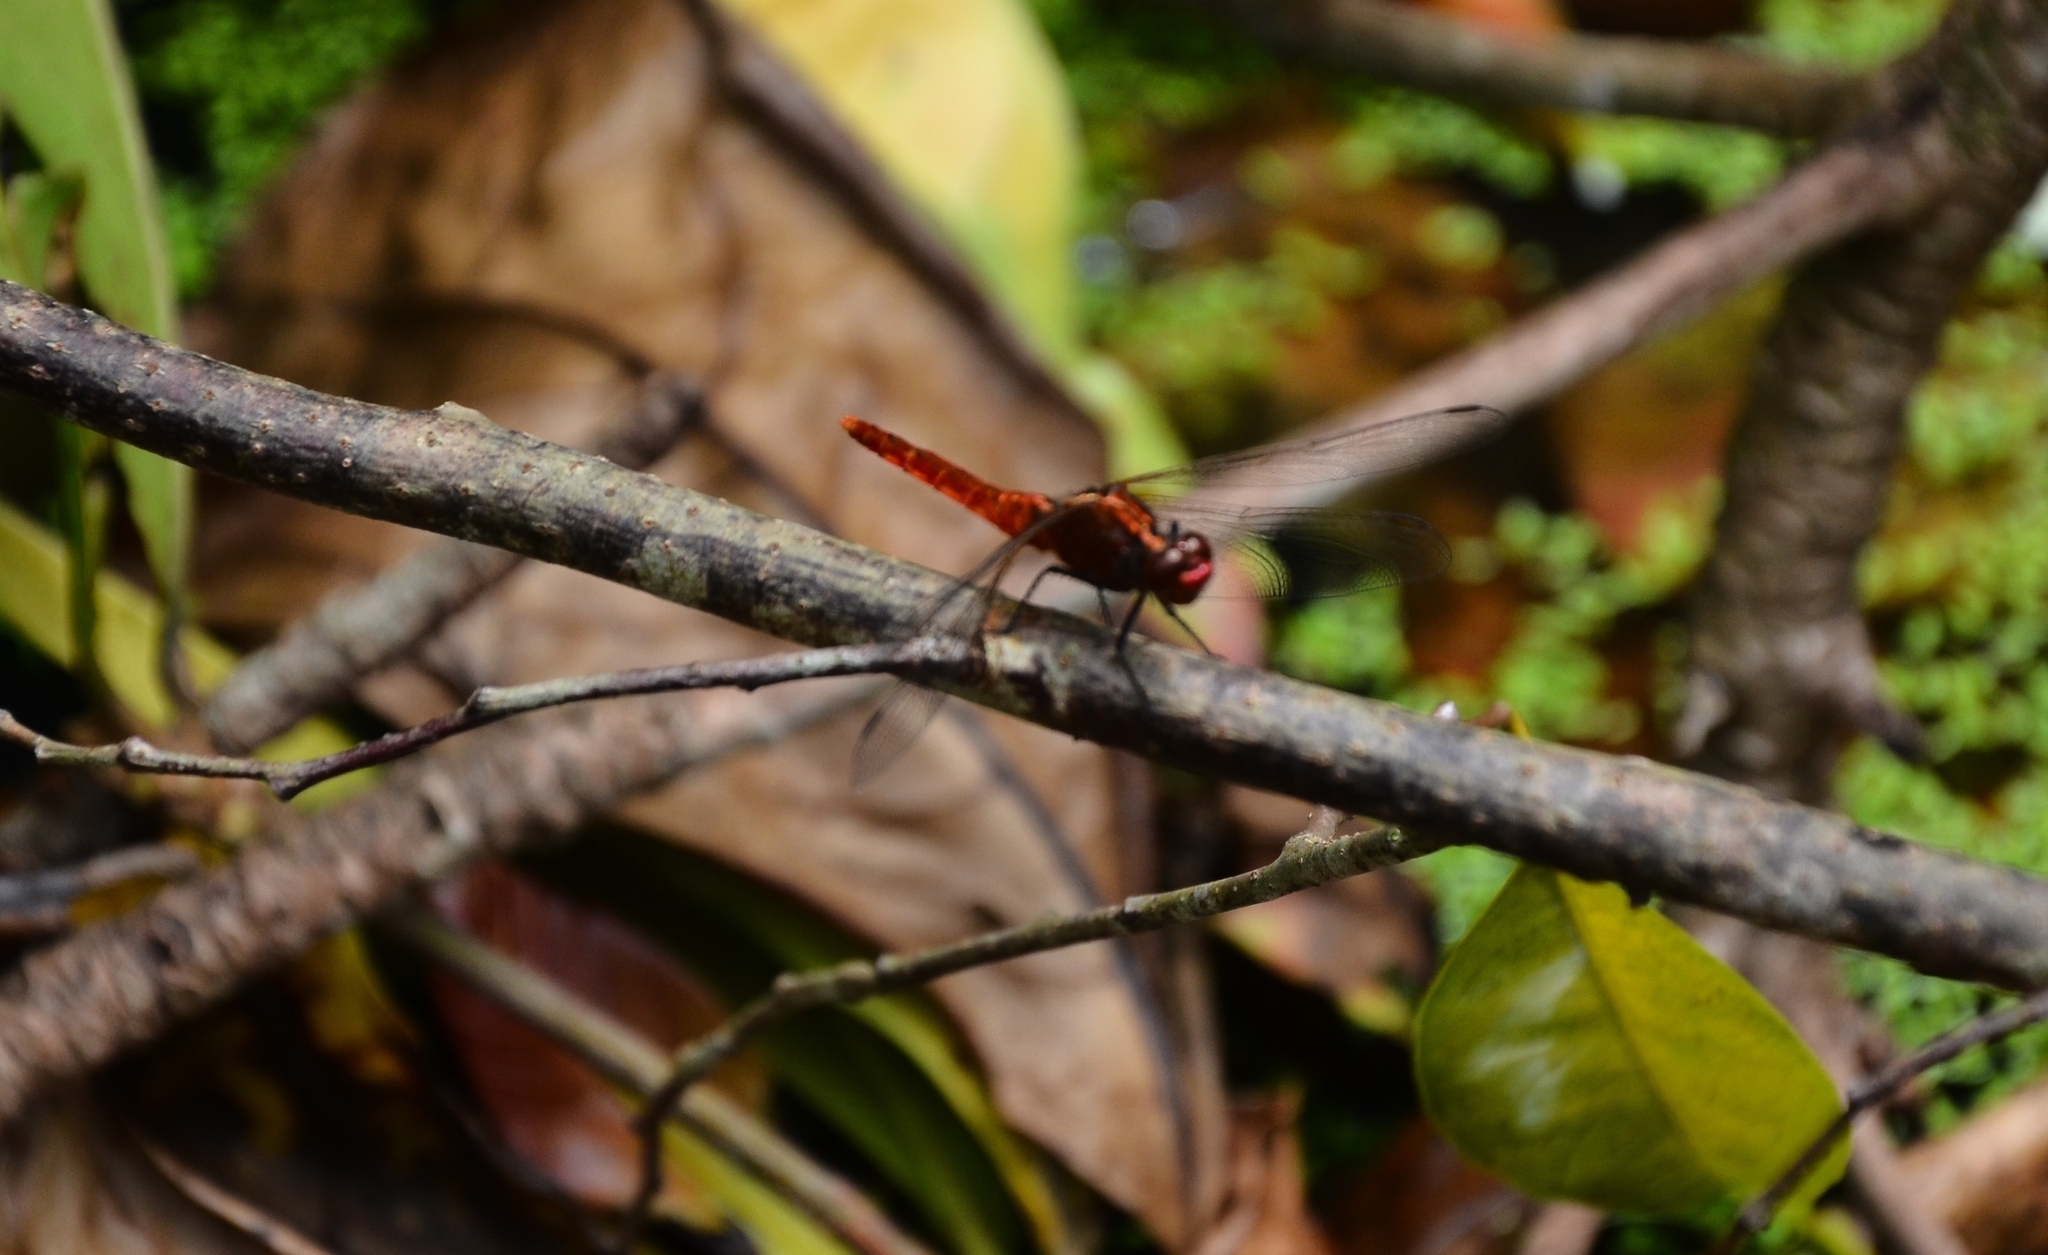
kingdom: Animalia
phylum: Arthropoda
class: Insecta
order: Odonata
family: Libellulidae
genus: Rhodothemis
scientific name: Rhodothemis rufa
